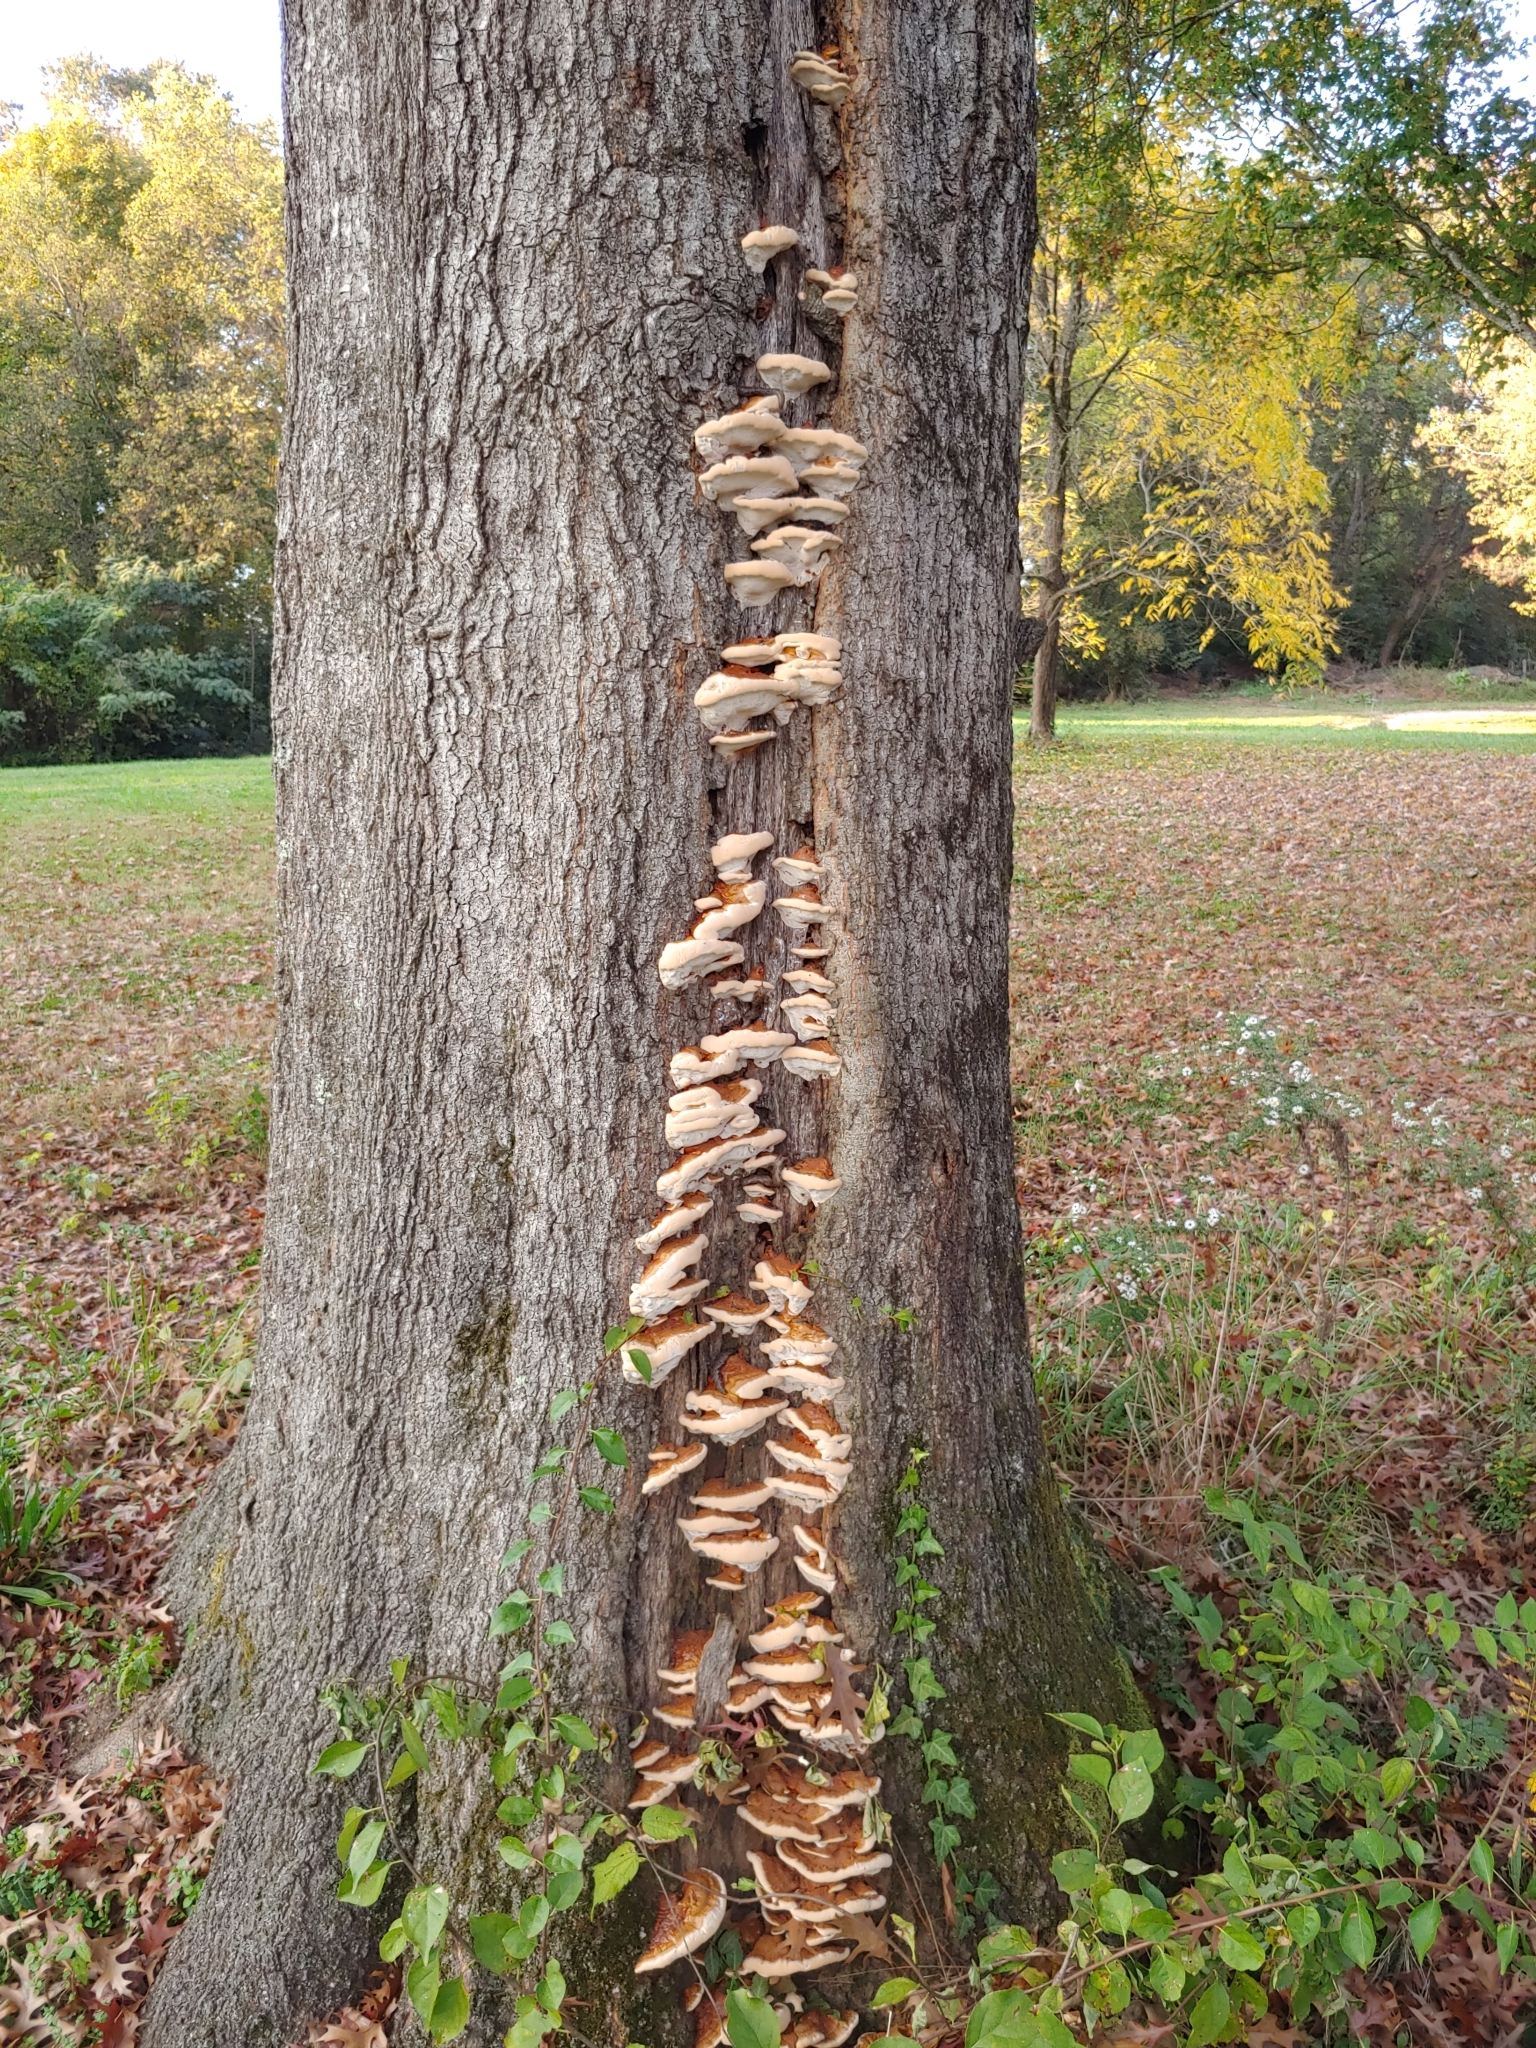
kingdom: Fungi
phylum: Basidiomycota
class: Agaricomycetes
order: Polyporales
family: Polyporaceae
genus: Ganoderma
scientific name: Ganoderma resinaceum
